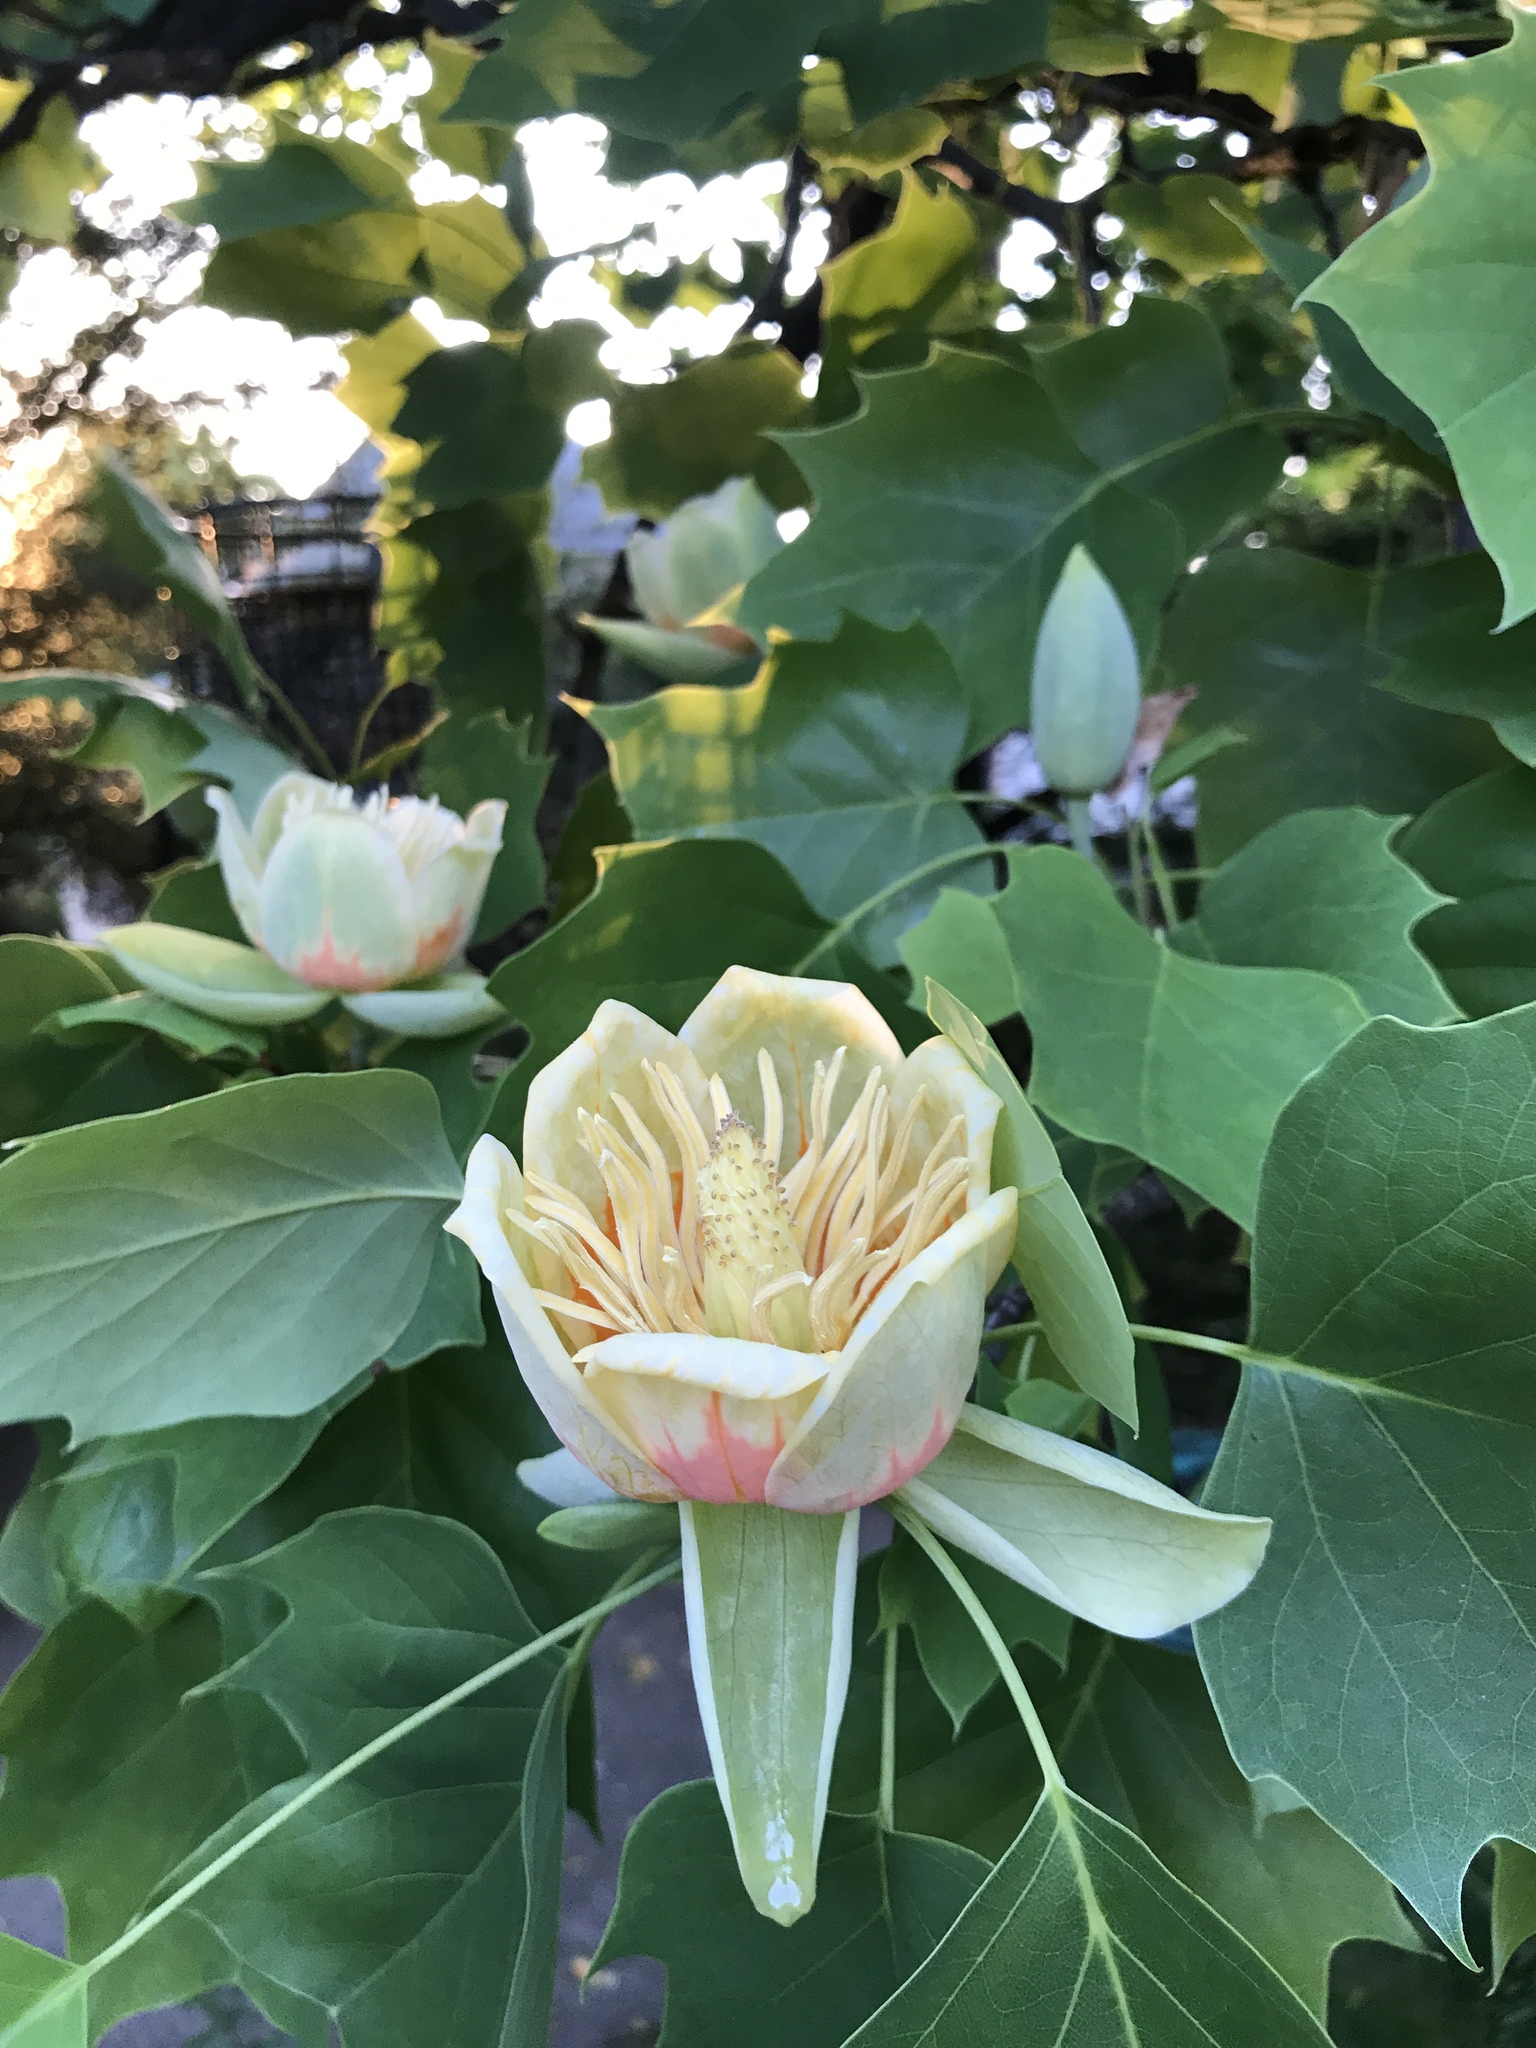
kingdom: Plantae
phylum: Tracheophyta
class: Magnoliopsida
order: Magnoliales
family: Magnoliaceae
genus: Liriodendron
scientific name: Liriodendron tulipifera
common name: Tulip tree
